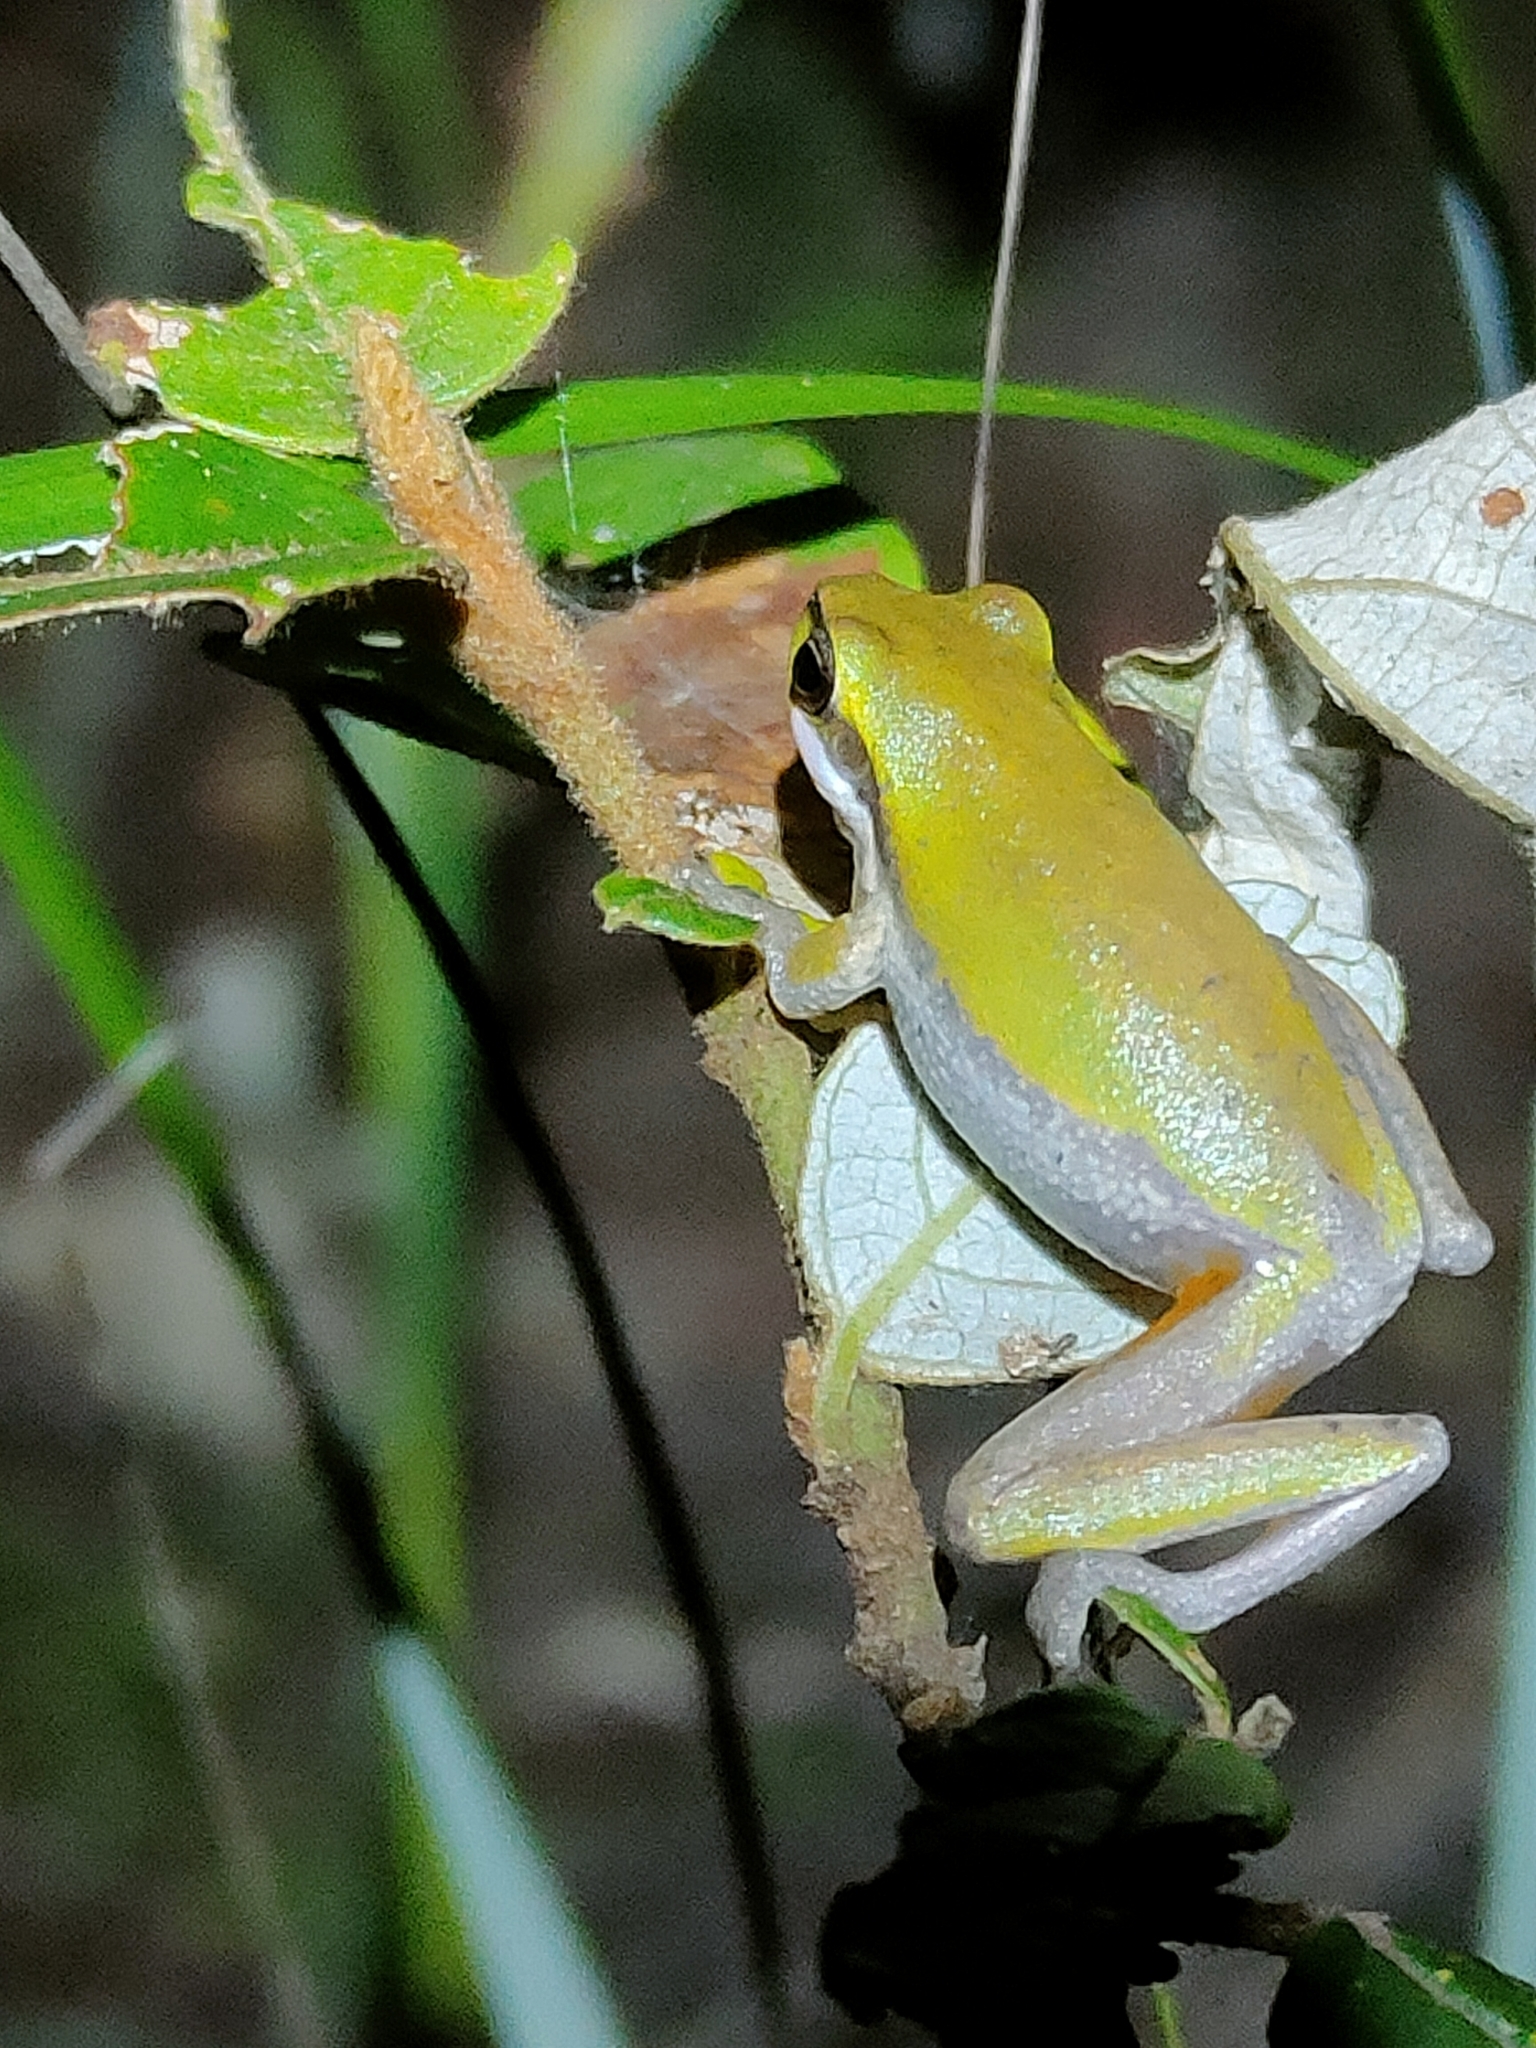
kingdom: Animalia
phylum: Chordata
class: Amphibia
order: Anura
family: Pelodryadidae
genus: Litoria
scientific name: Litoria fallax
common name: Eastern dwarf treefrog
